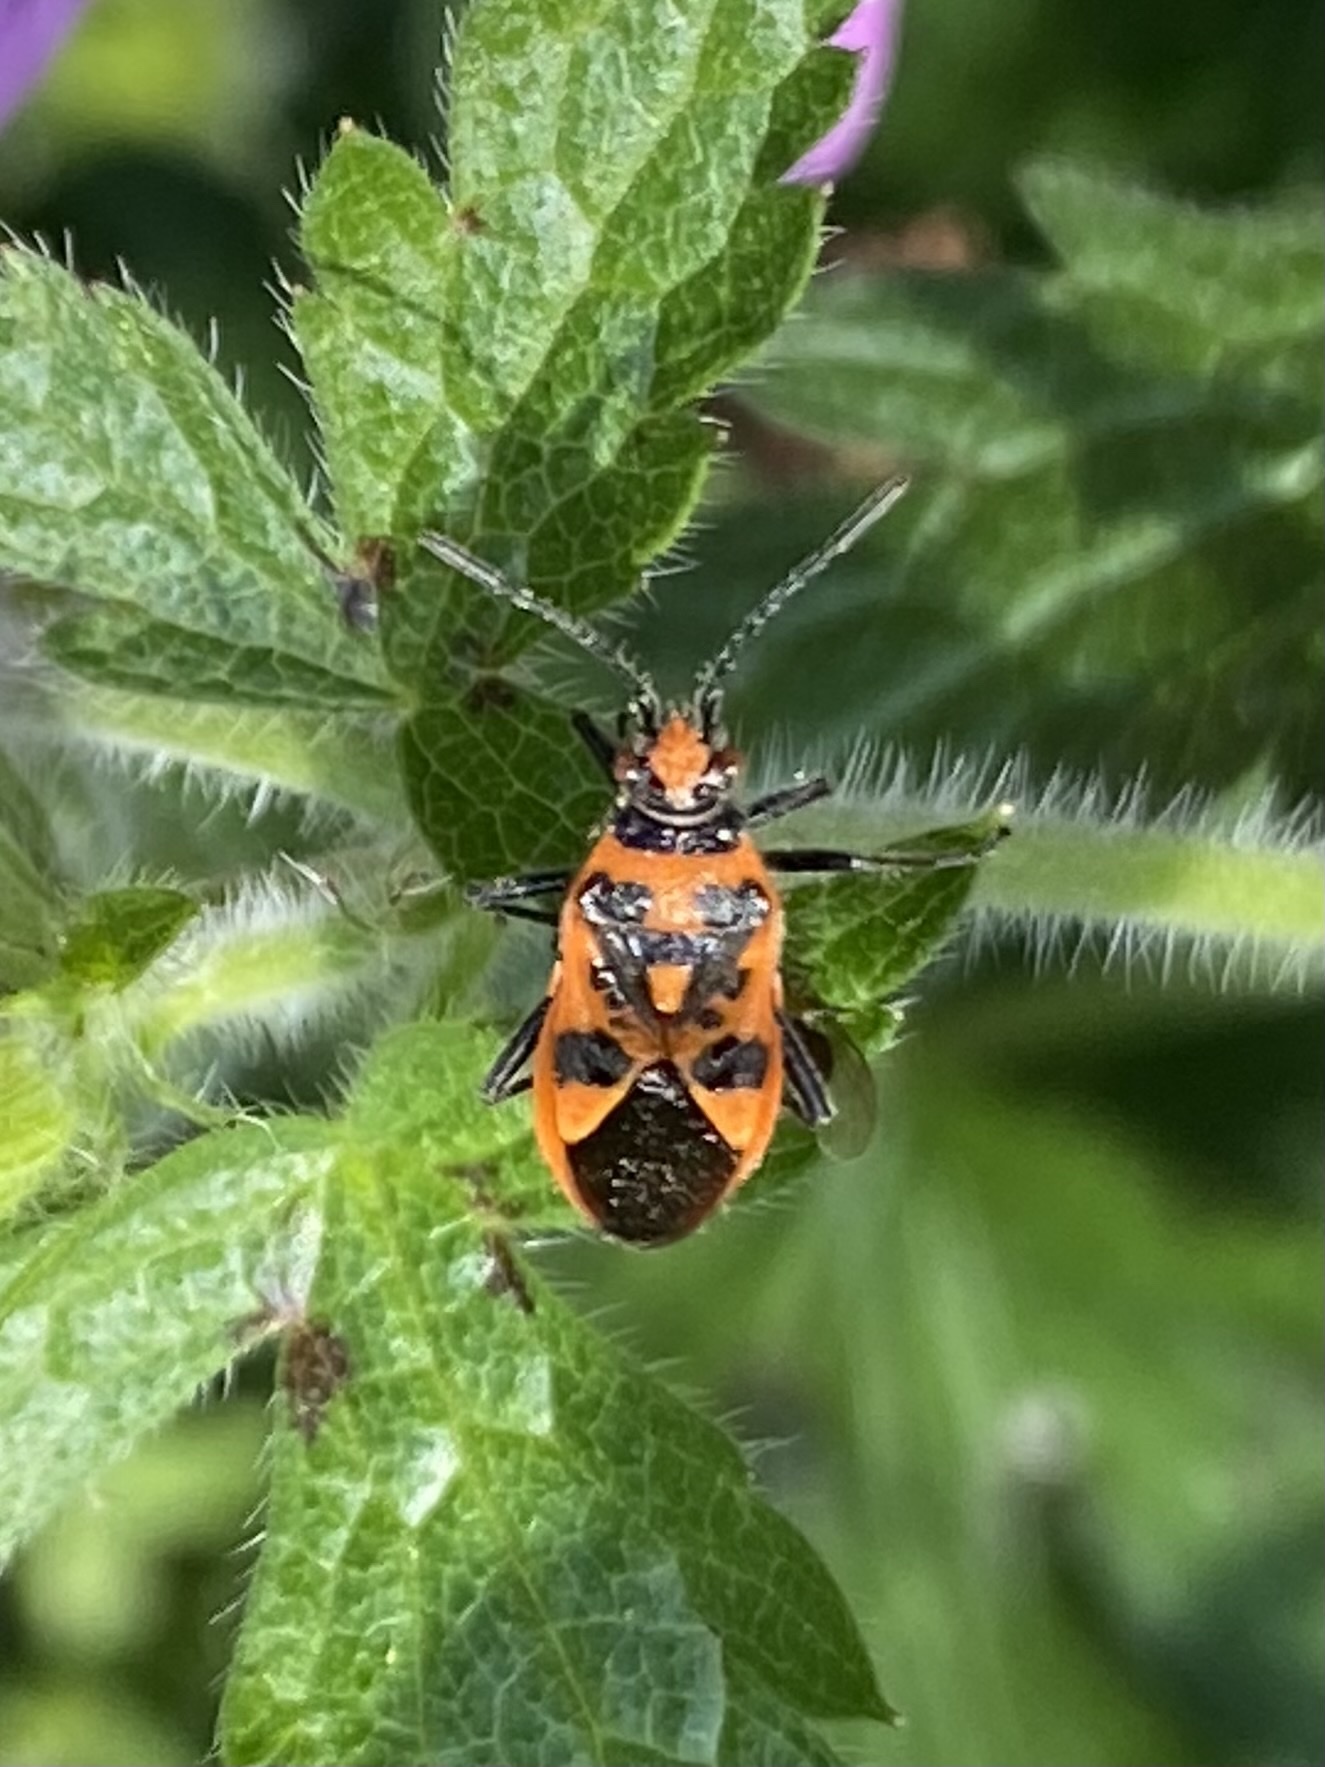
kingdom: Animalia
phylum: Arthropoda
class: Insecta
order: Hemiptera
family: Rhopalidae
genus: Corizus
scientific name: Corizus hyoscyami
